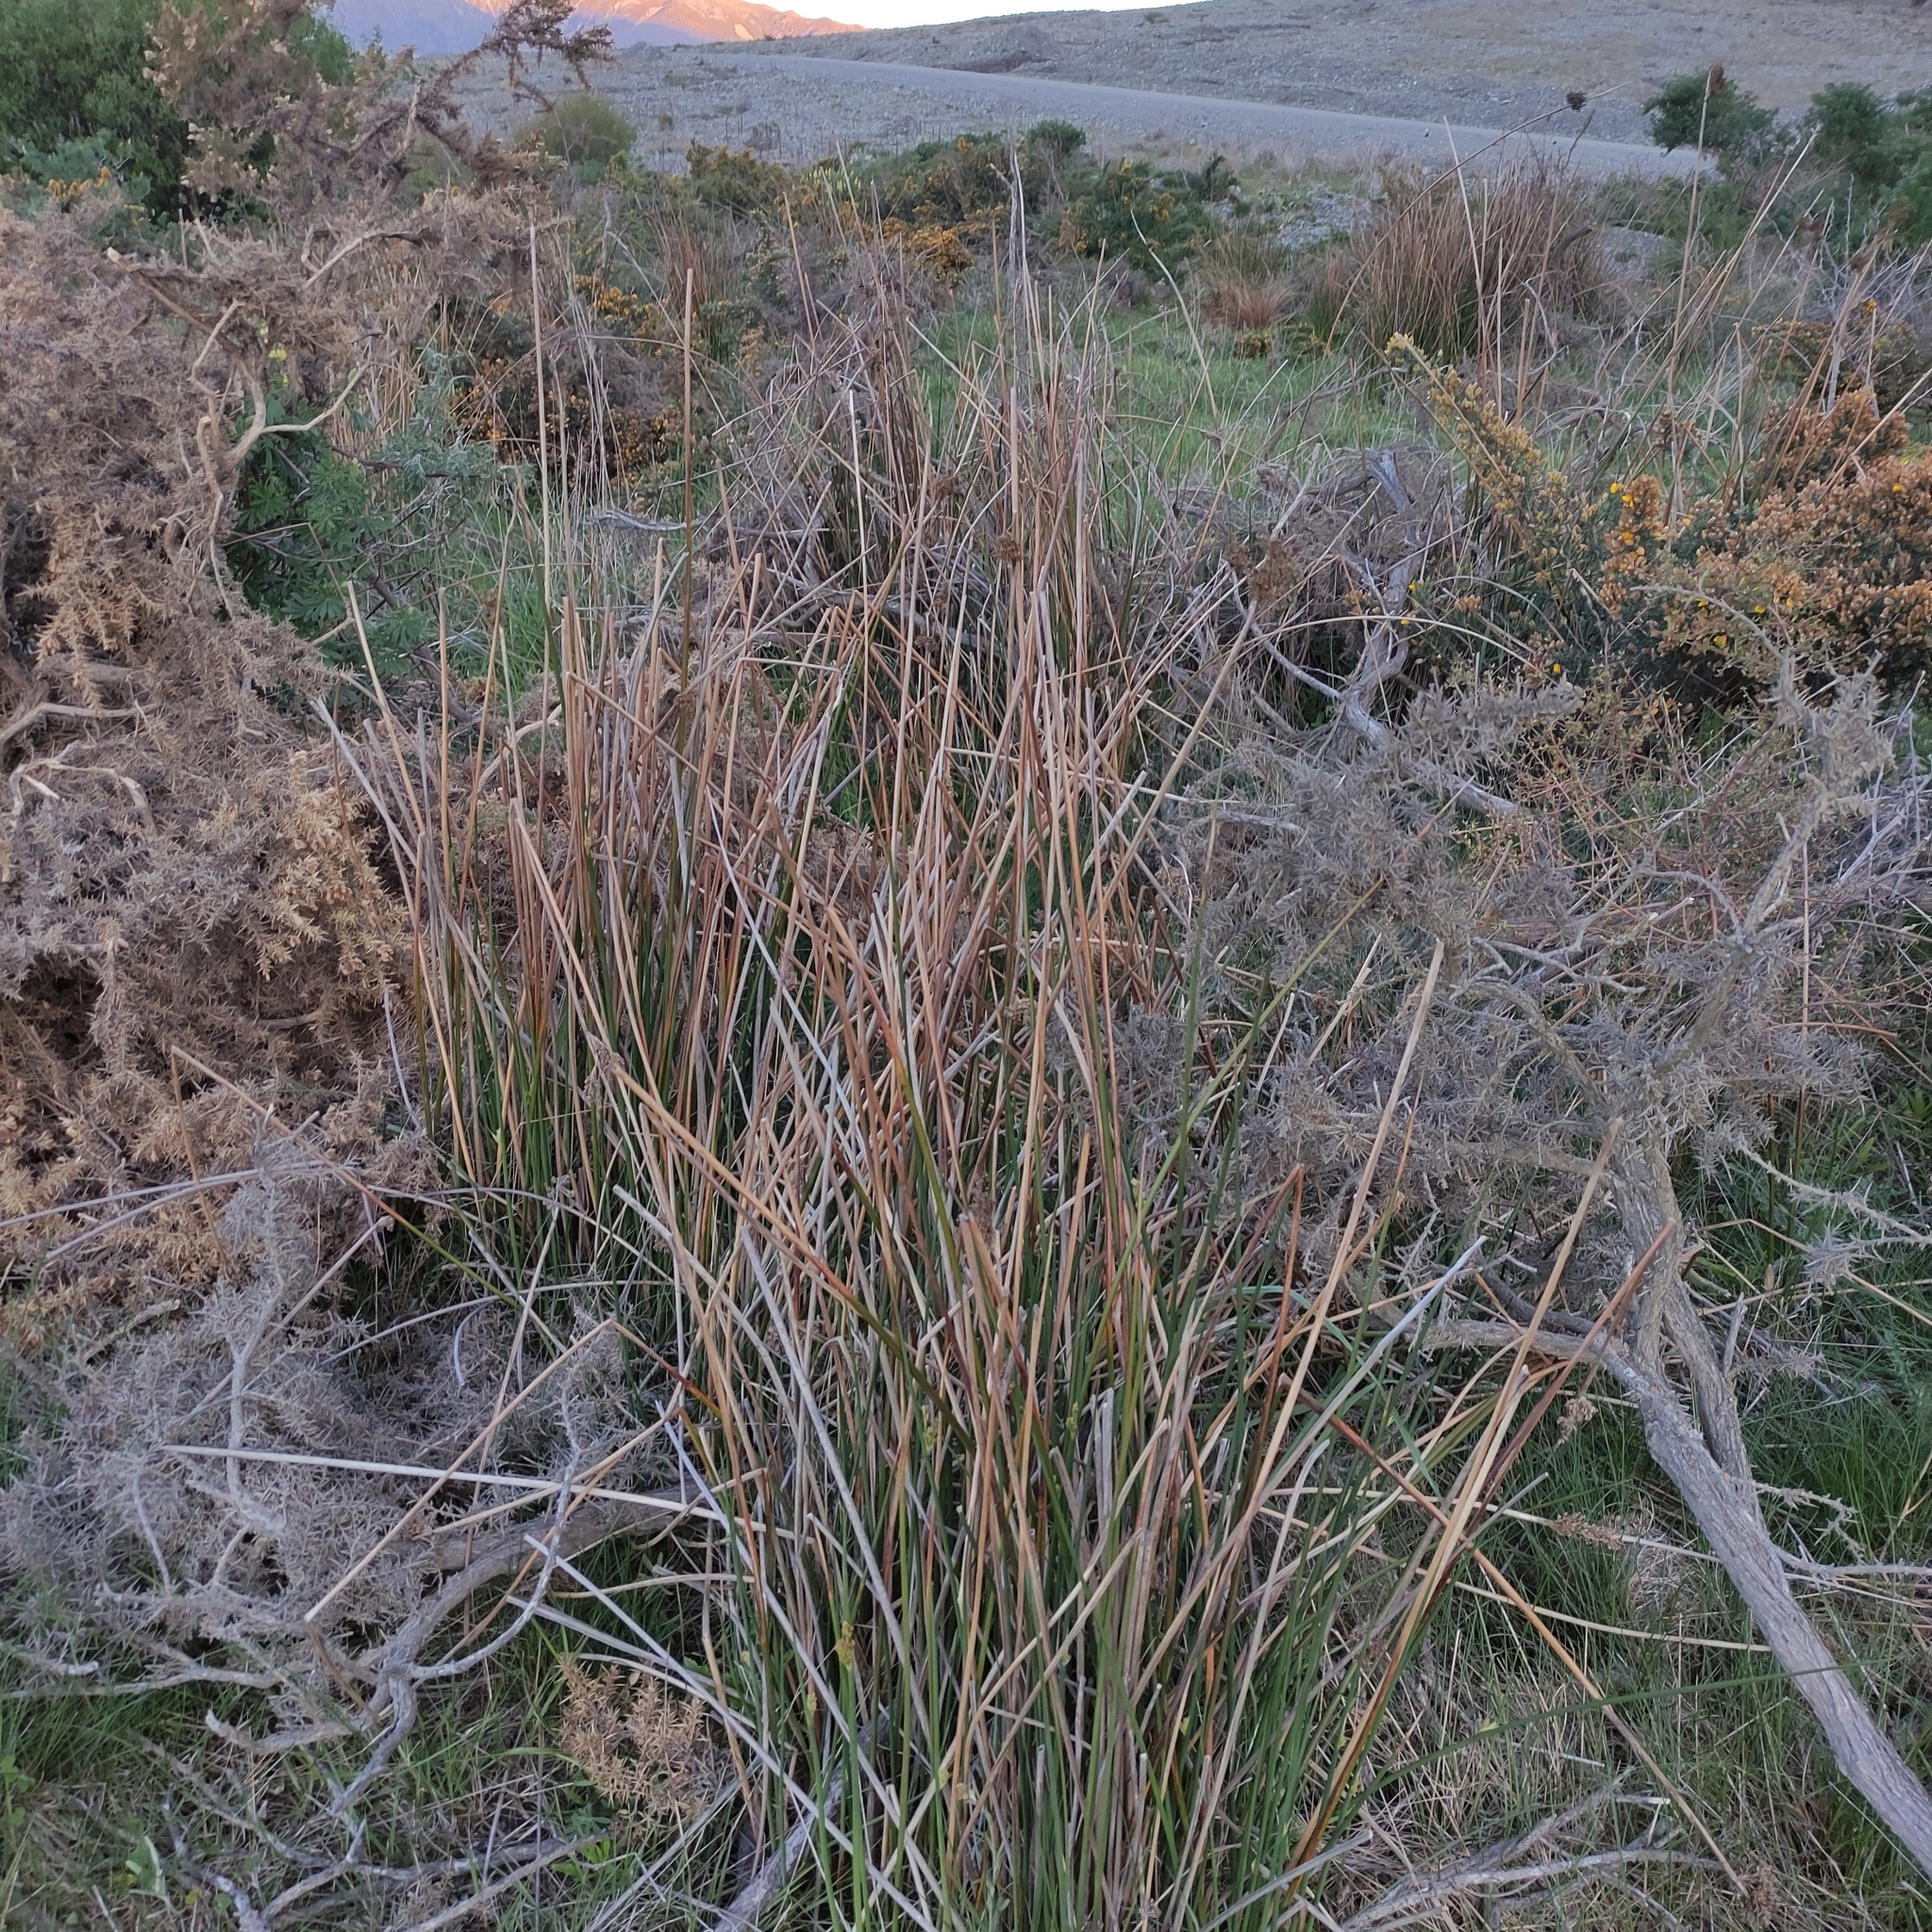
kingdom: Plantae
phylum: Tracheophyta
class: Liliopsida
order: Poales
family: Juncaceae
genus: Juncus
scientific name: Juncus pallidus
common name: Great soft-rush
